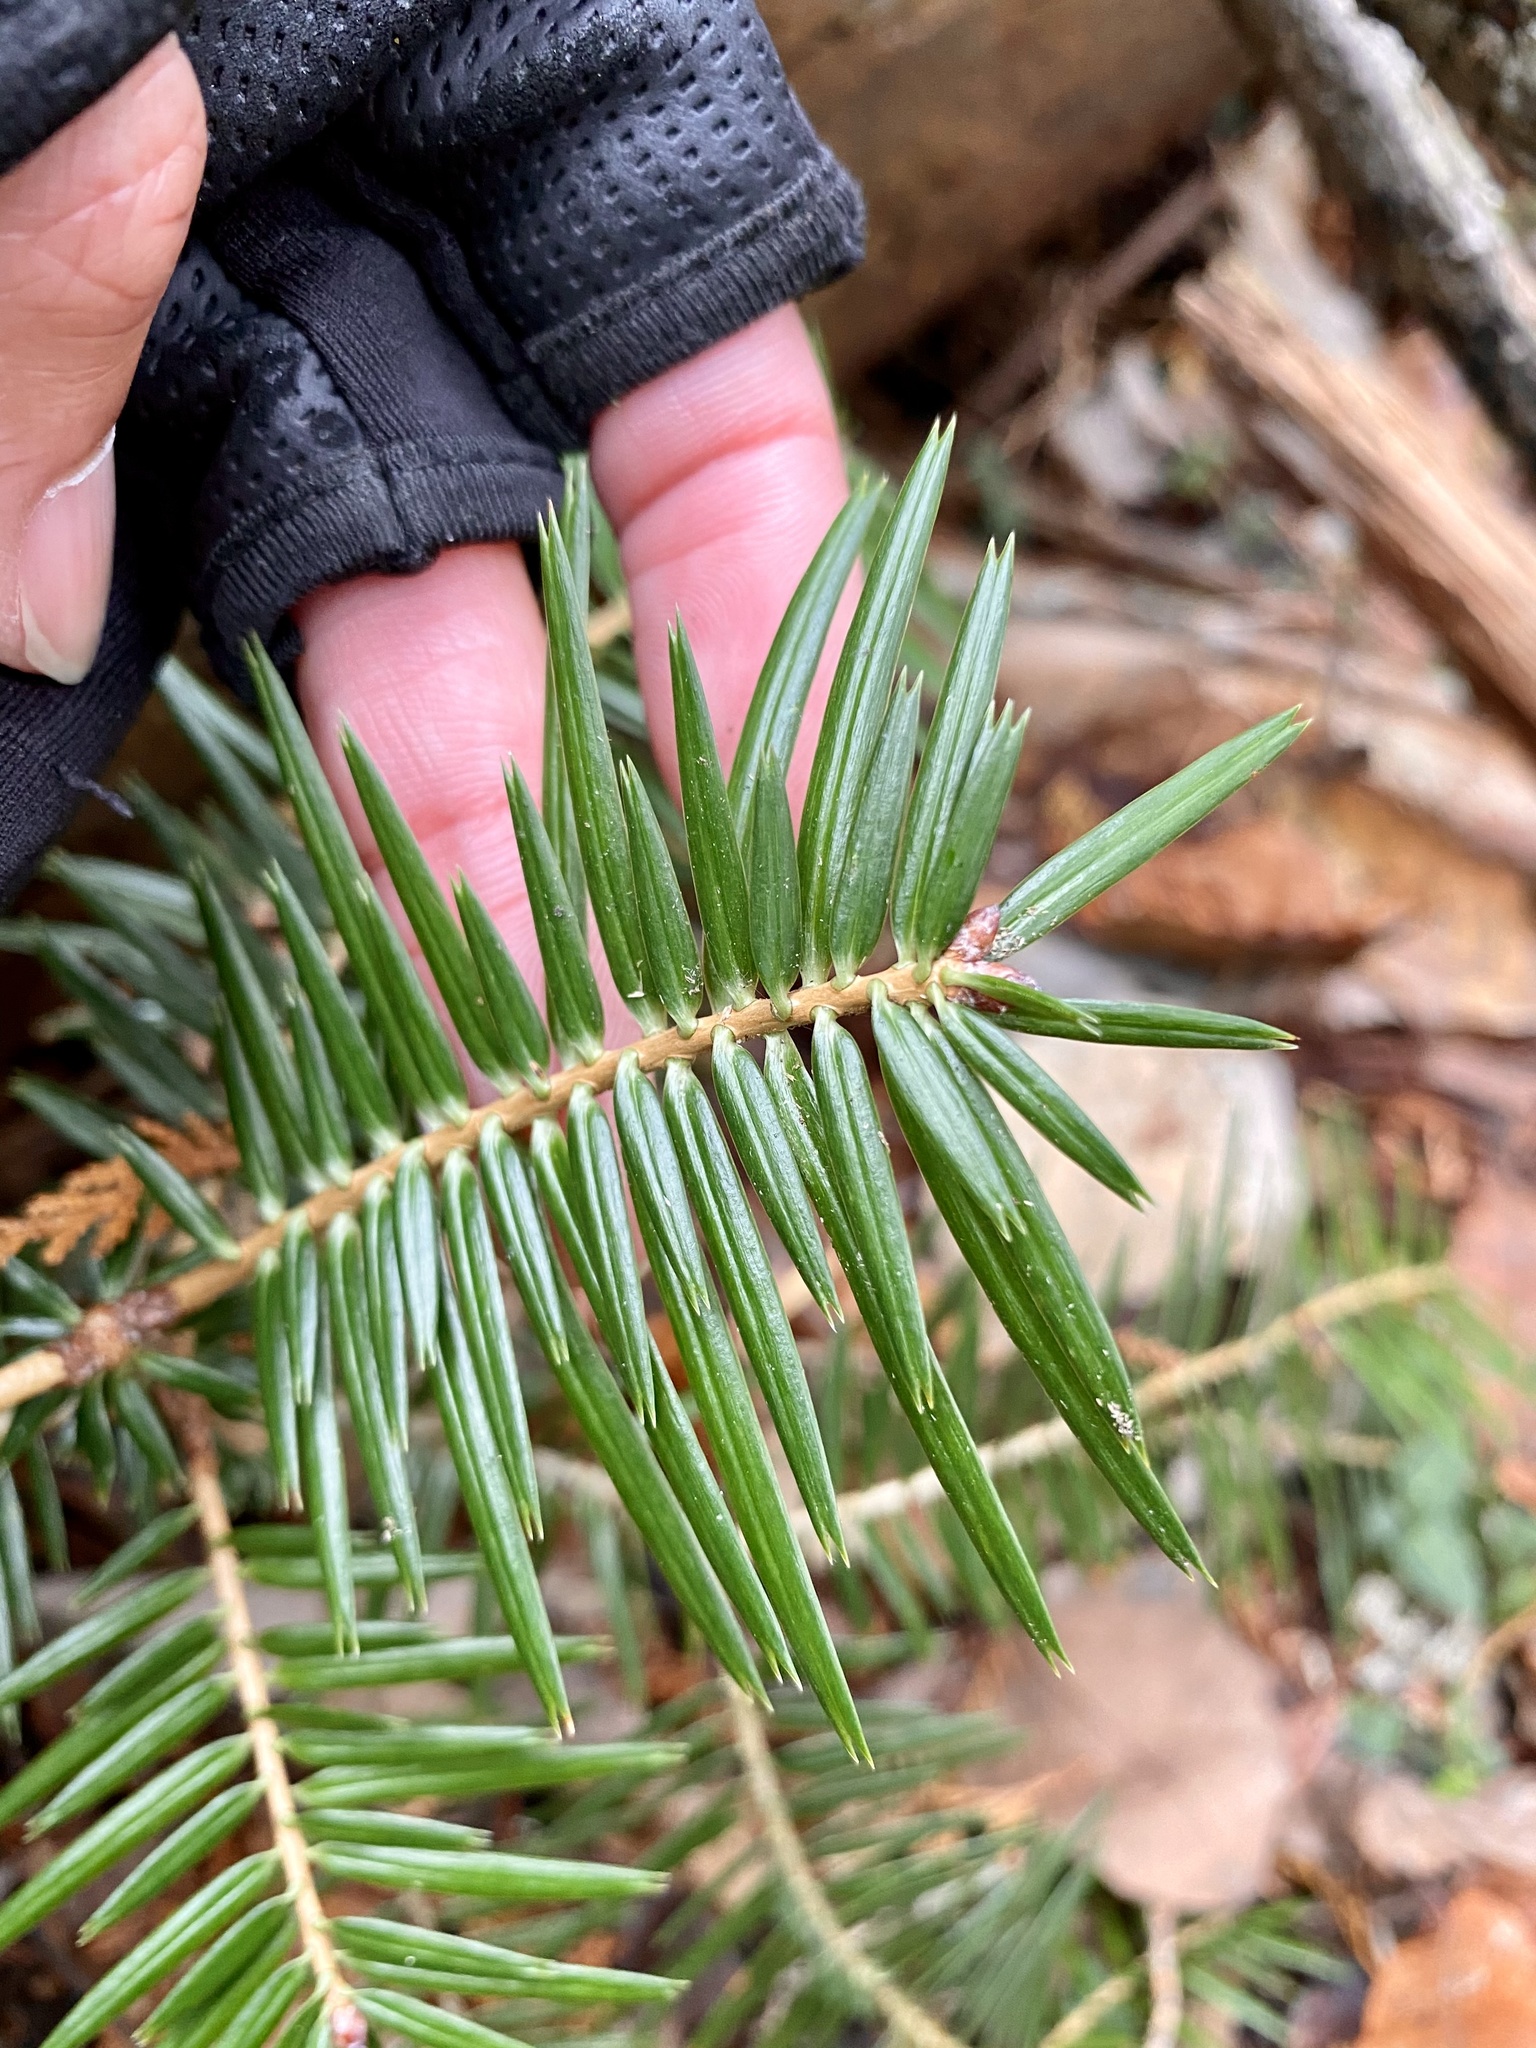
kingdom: Plantae
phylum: Tracheophyta
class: Pinopsida
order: Pinales
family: Pinaceae
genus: Abies
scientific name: Abies firma
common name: Momi fir
